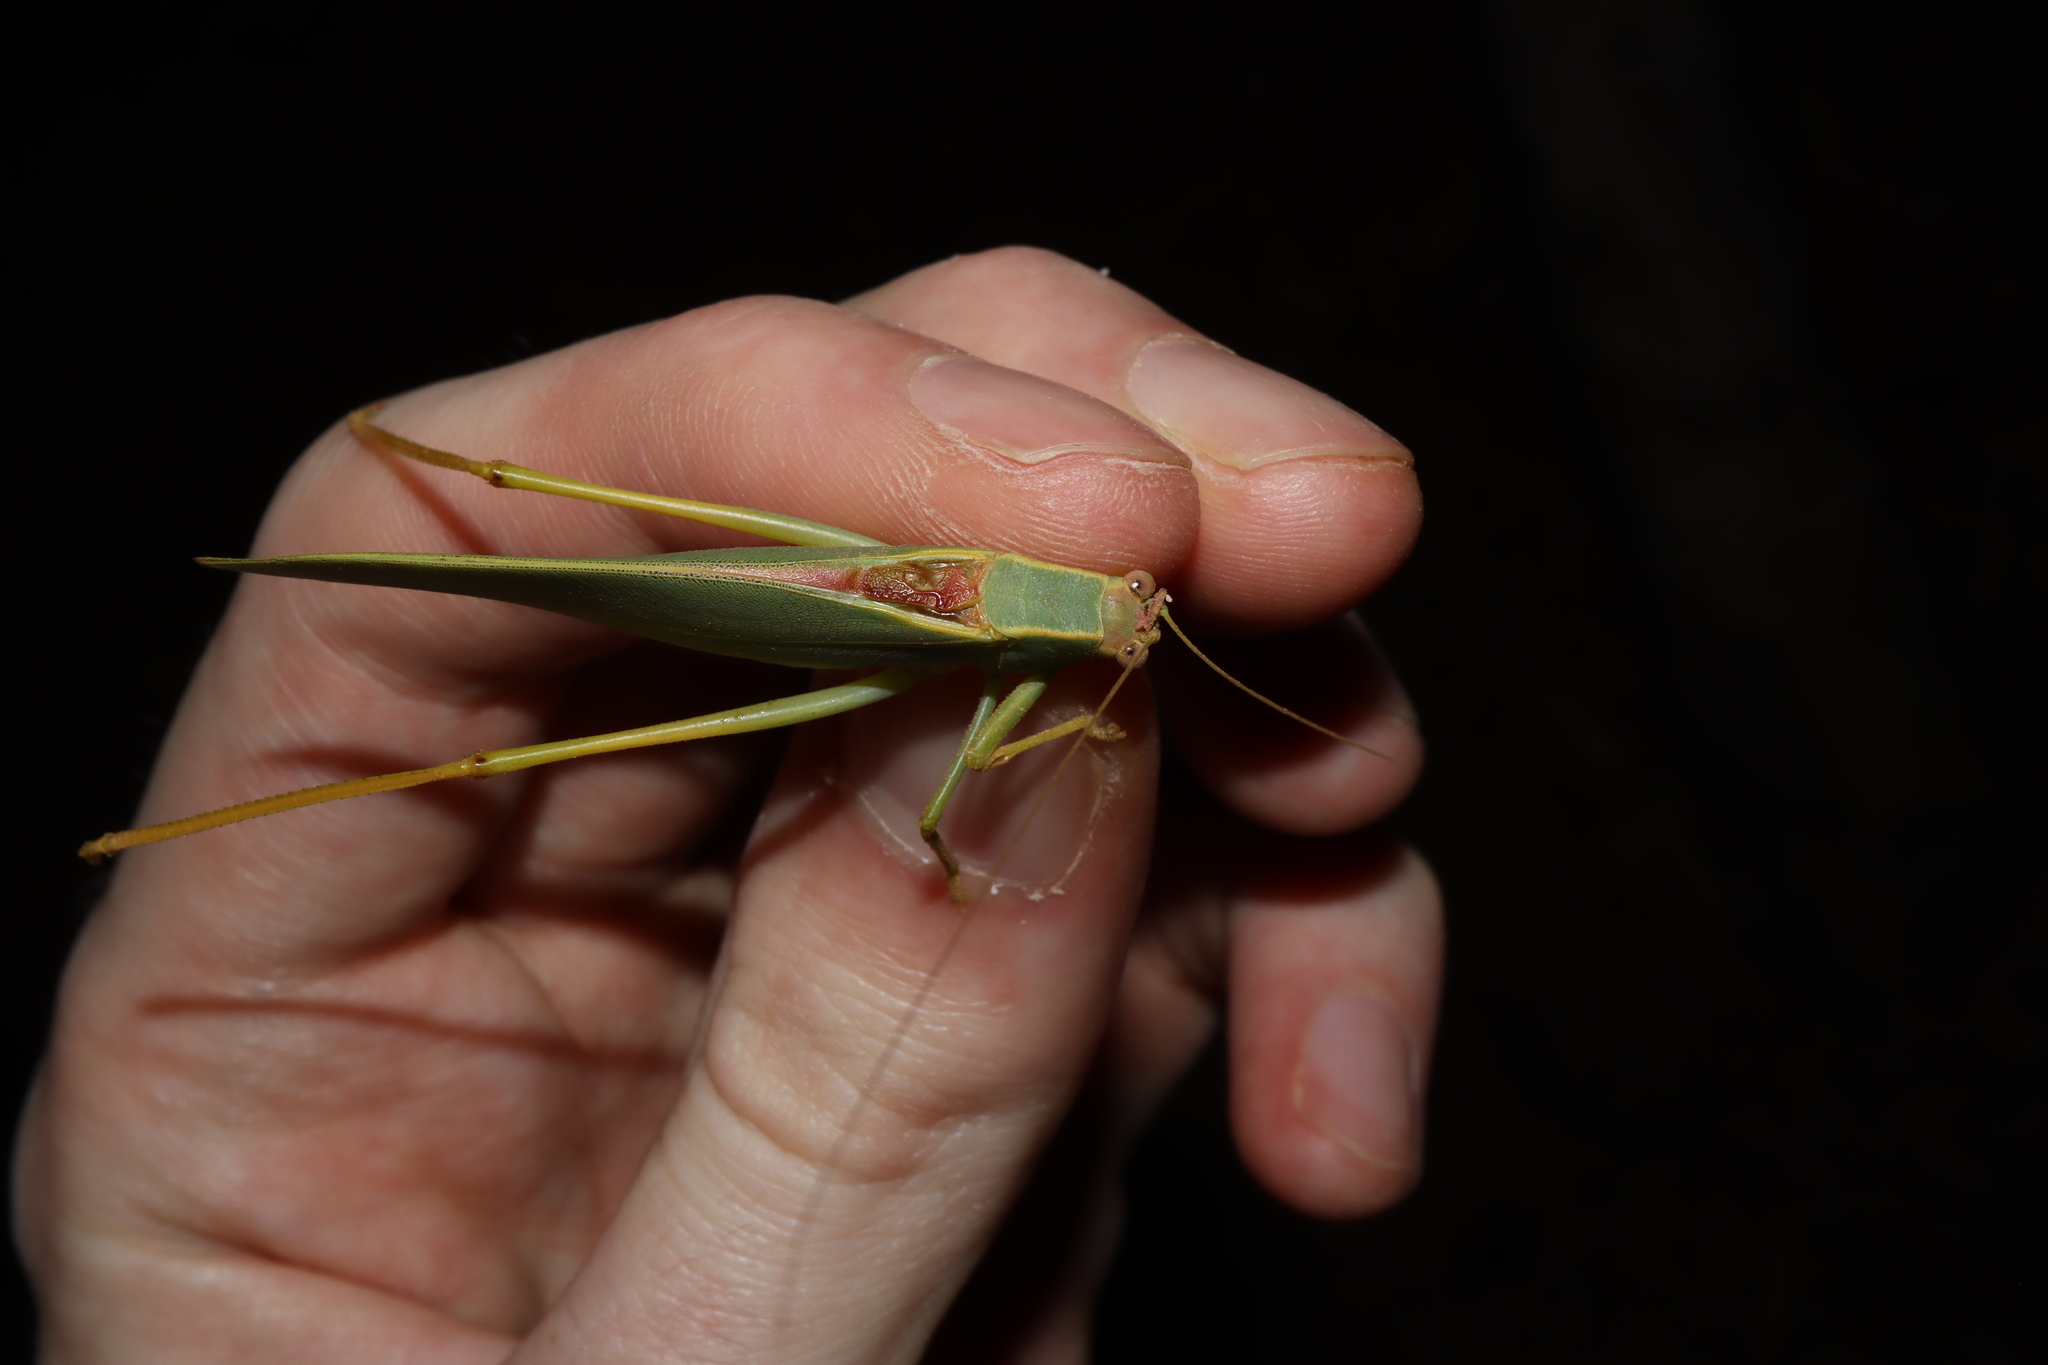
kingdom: Animalia
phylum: Arthropoda
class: Insecta
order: Orthoptera
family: Tettigoniidae
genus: Torbia
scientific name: Torbia viridissima
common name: Non-predaceous gum leaf katydid
